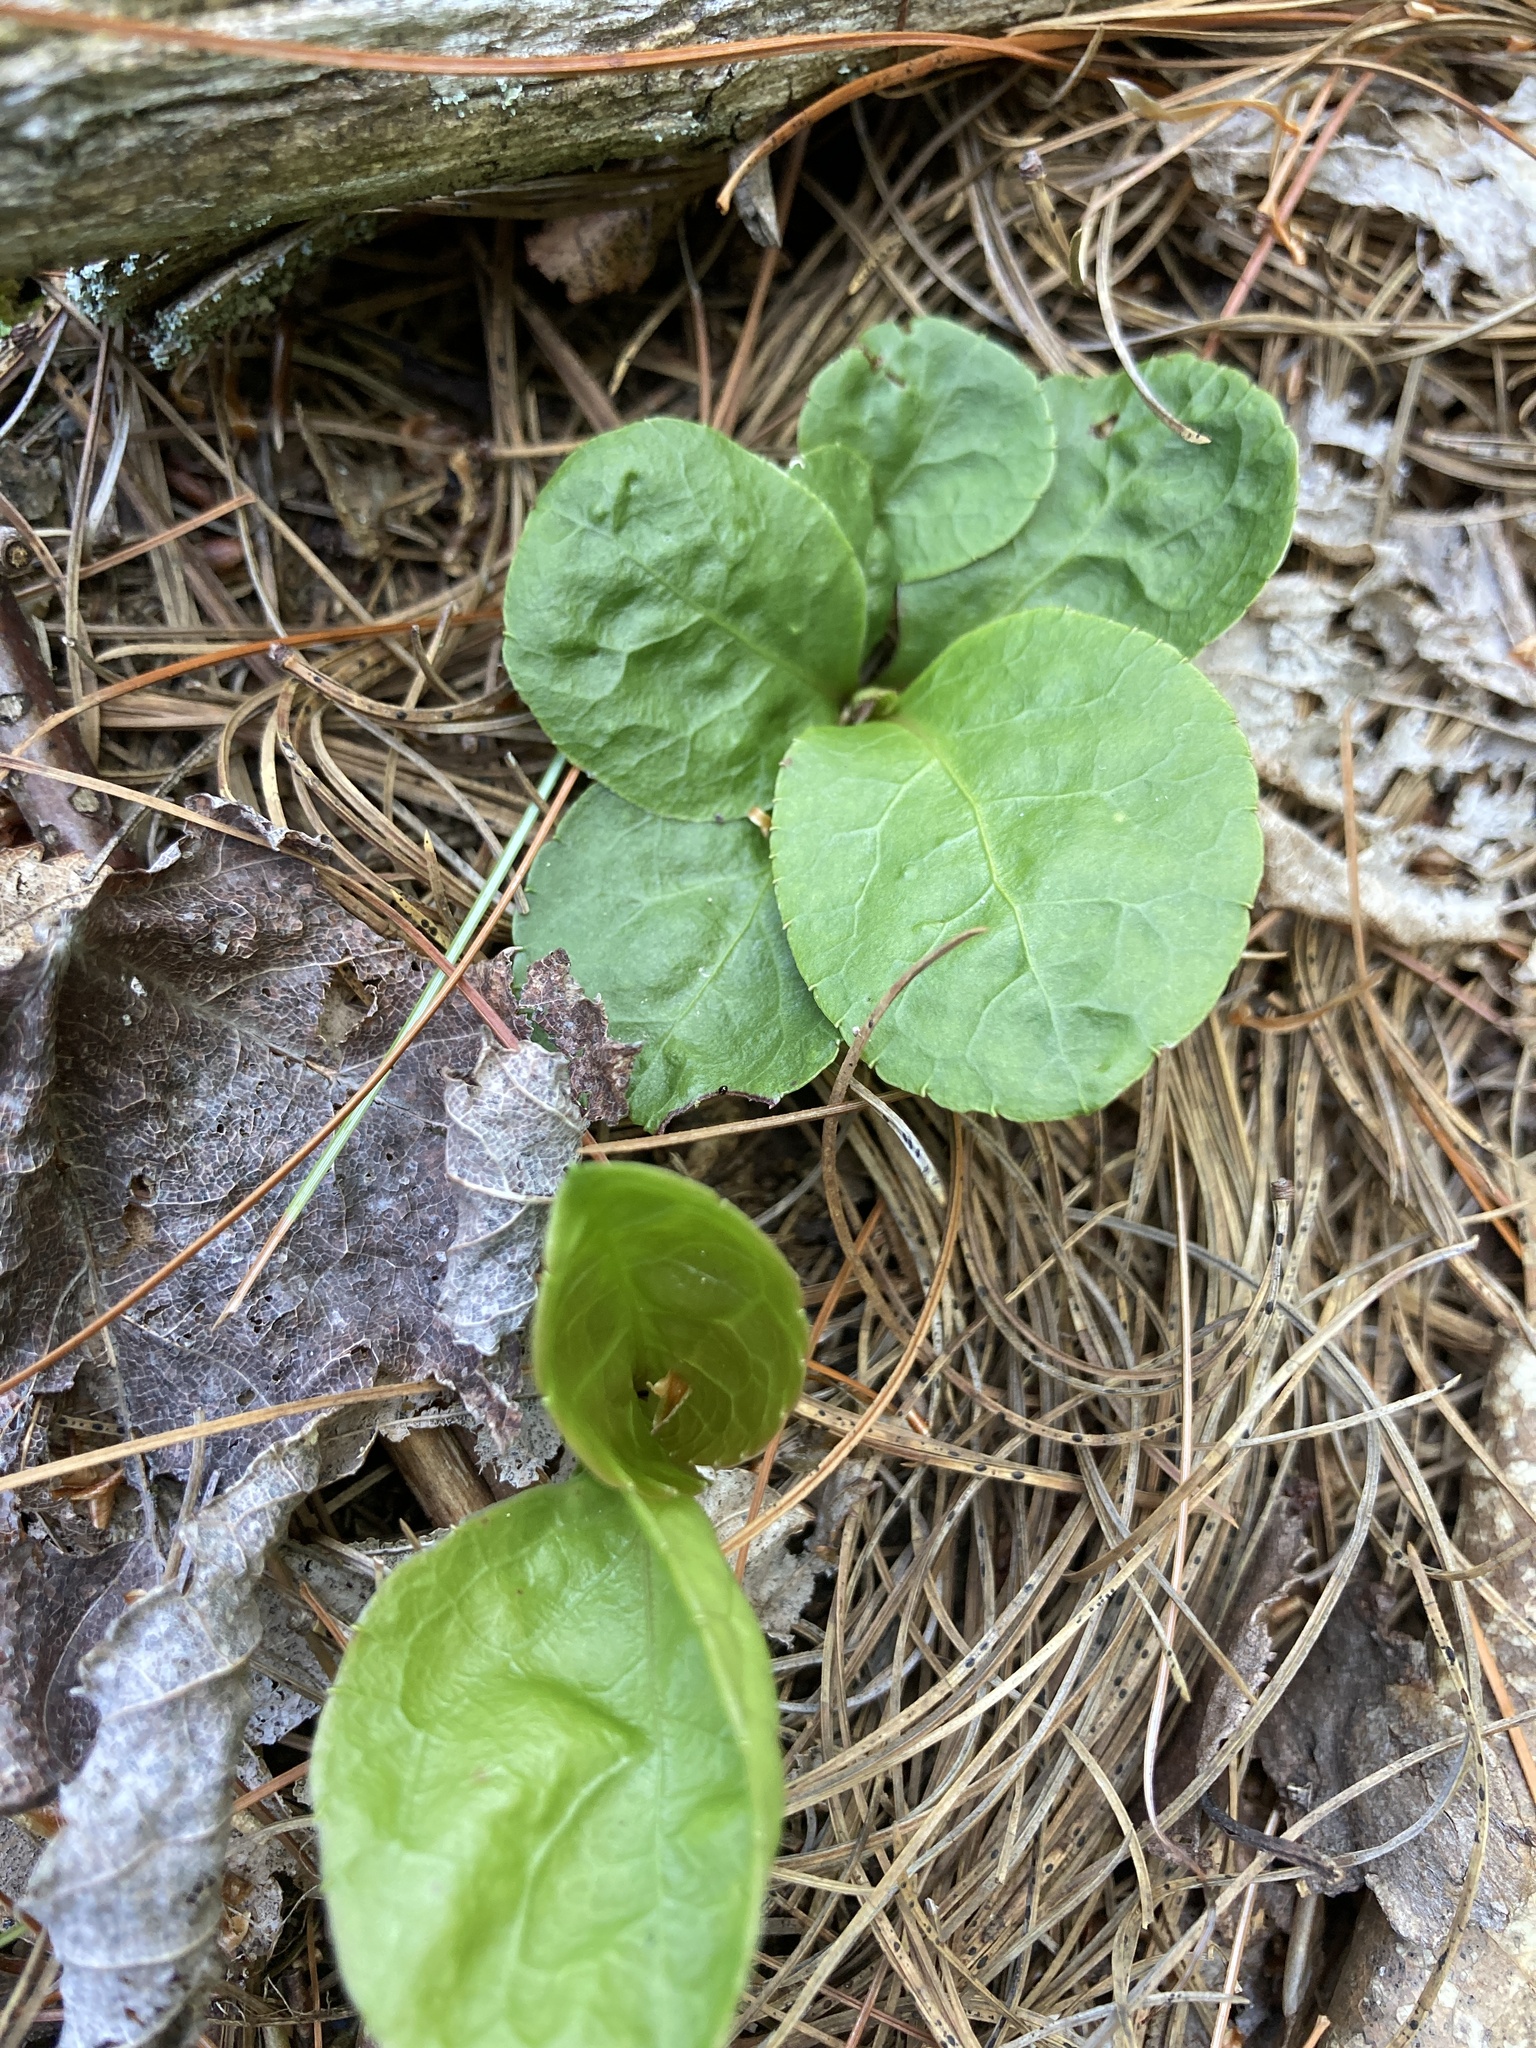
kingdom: Plantae
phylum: Tracheophyta
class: Magnoliopsida
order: Ericales
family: Ericaceae
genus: Pyrola
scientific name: Pyrola elliptica
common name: Shinleaf
